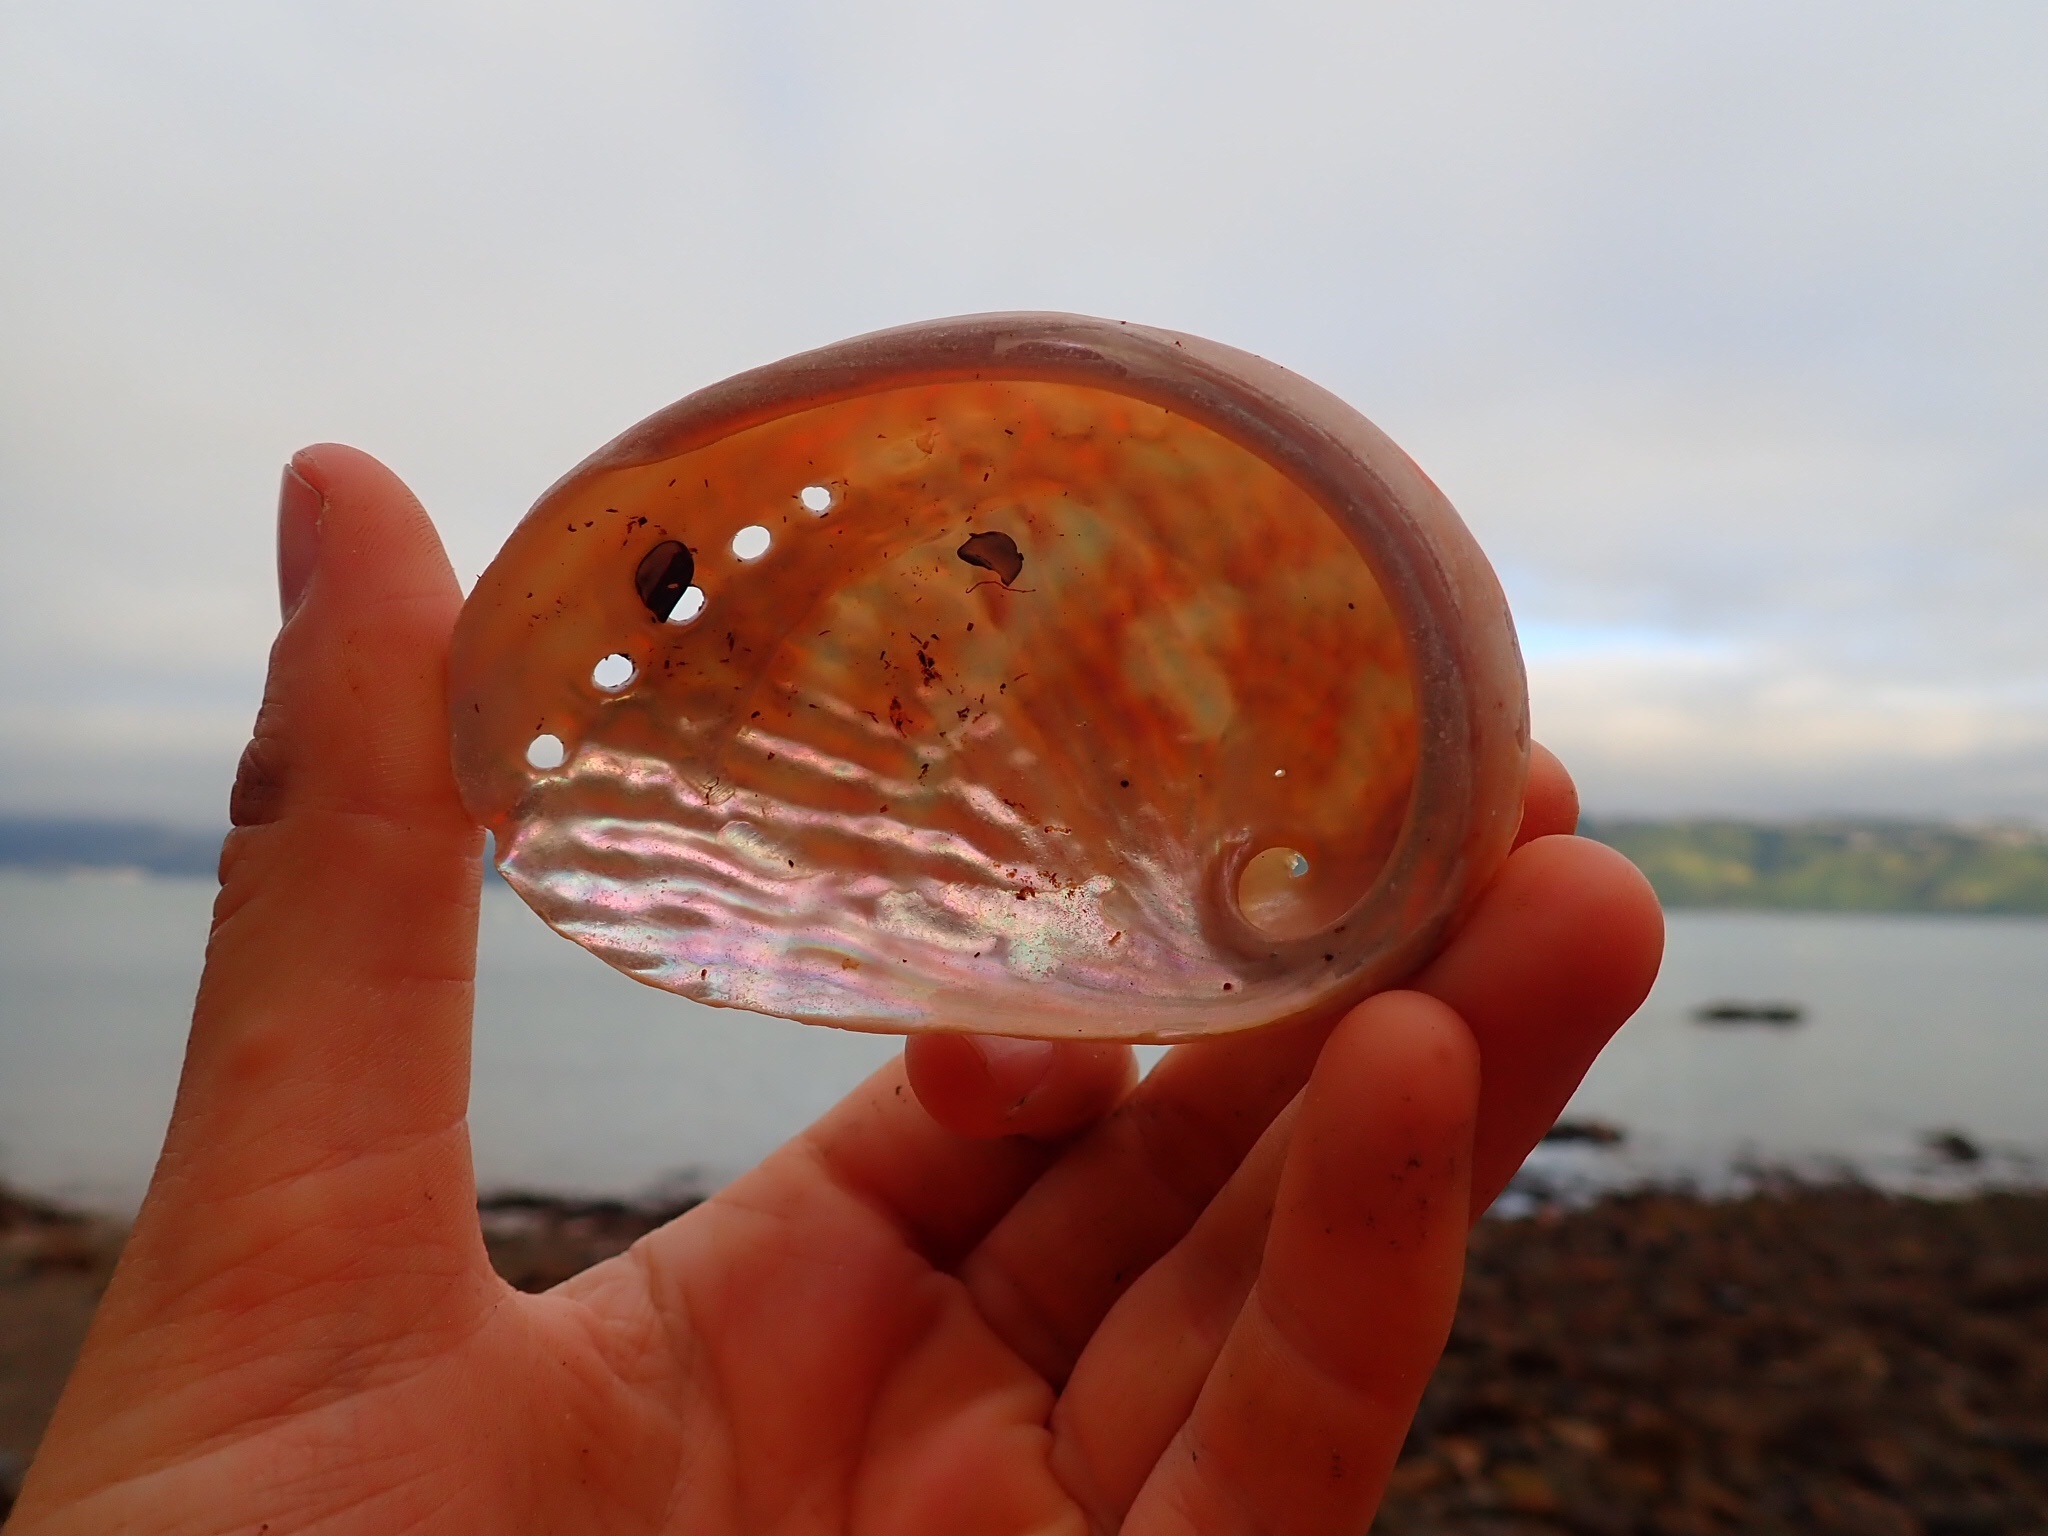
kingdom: Animalia
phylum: Mollusca
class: Gastropoda
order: Lepetellida
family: Haliotidae
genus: Haliotis
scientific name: Haliotis australis
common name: Silver abalone
